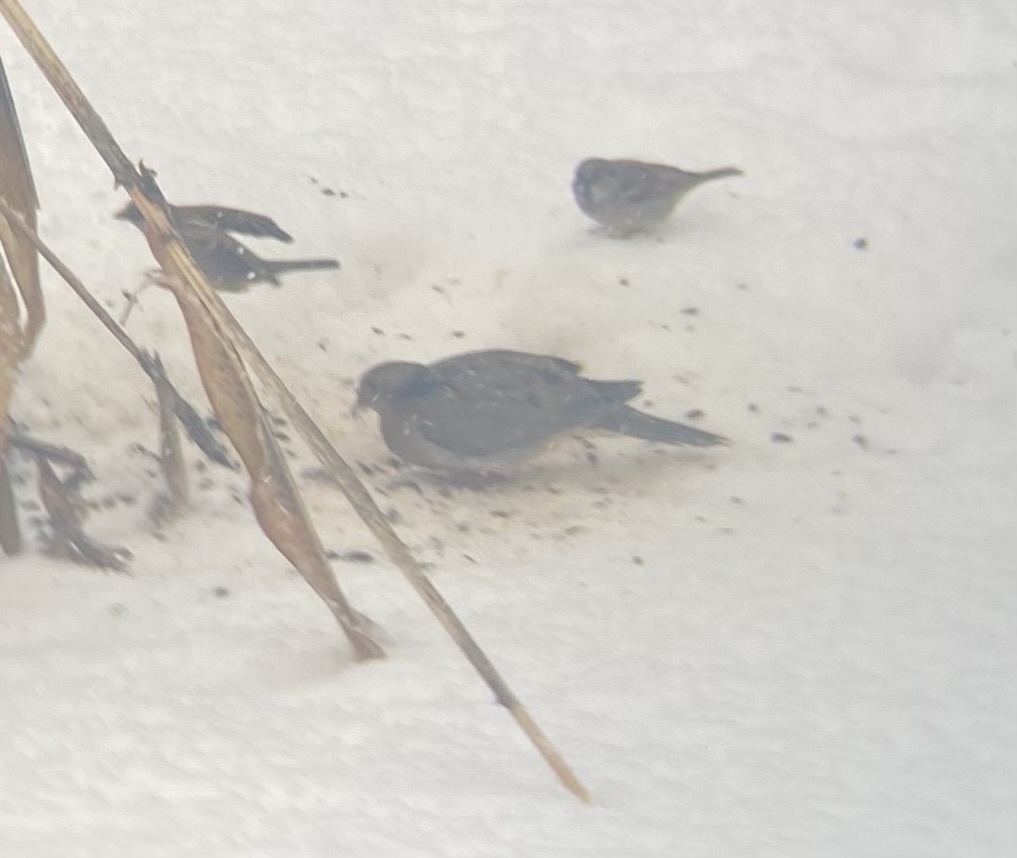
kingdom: Animalia
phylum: Chordata
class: Aves
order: Columbiformes
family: Columbidae
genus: Zenaida
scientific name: Zenaida macroura
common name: Mourning dove
